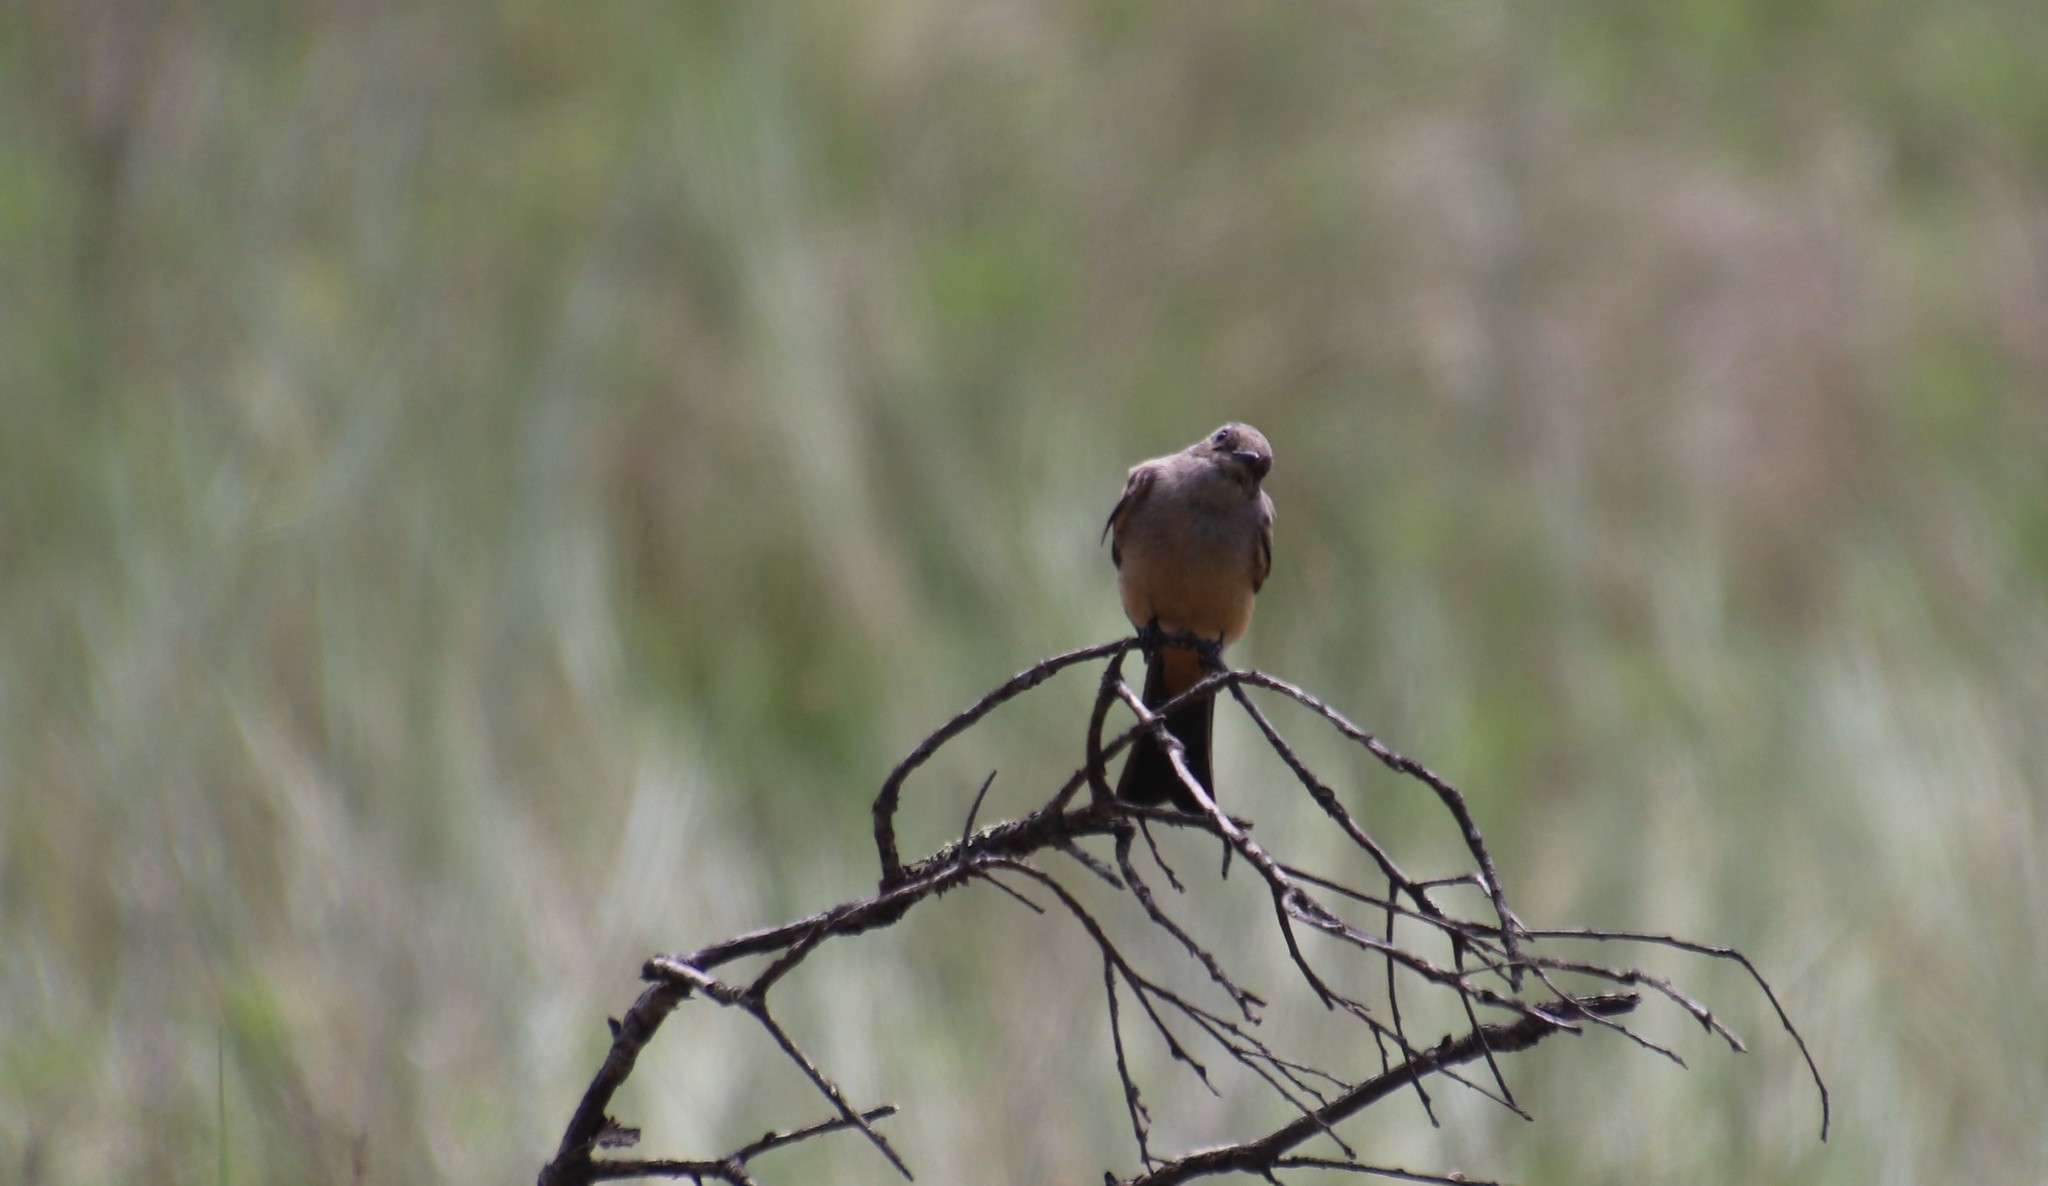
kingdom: Animalia
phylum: Chordata
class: Aves
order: Passeriformes
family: Tyrannidae
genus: Sayornis
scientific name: Sayornis saya
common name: Say's phoebe
